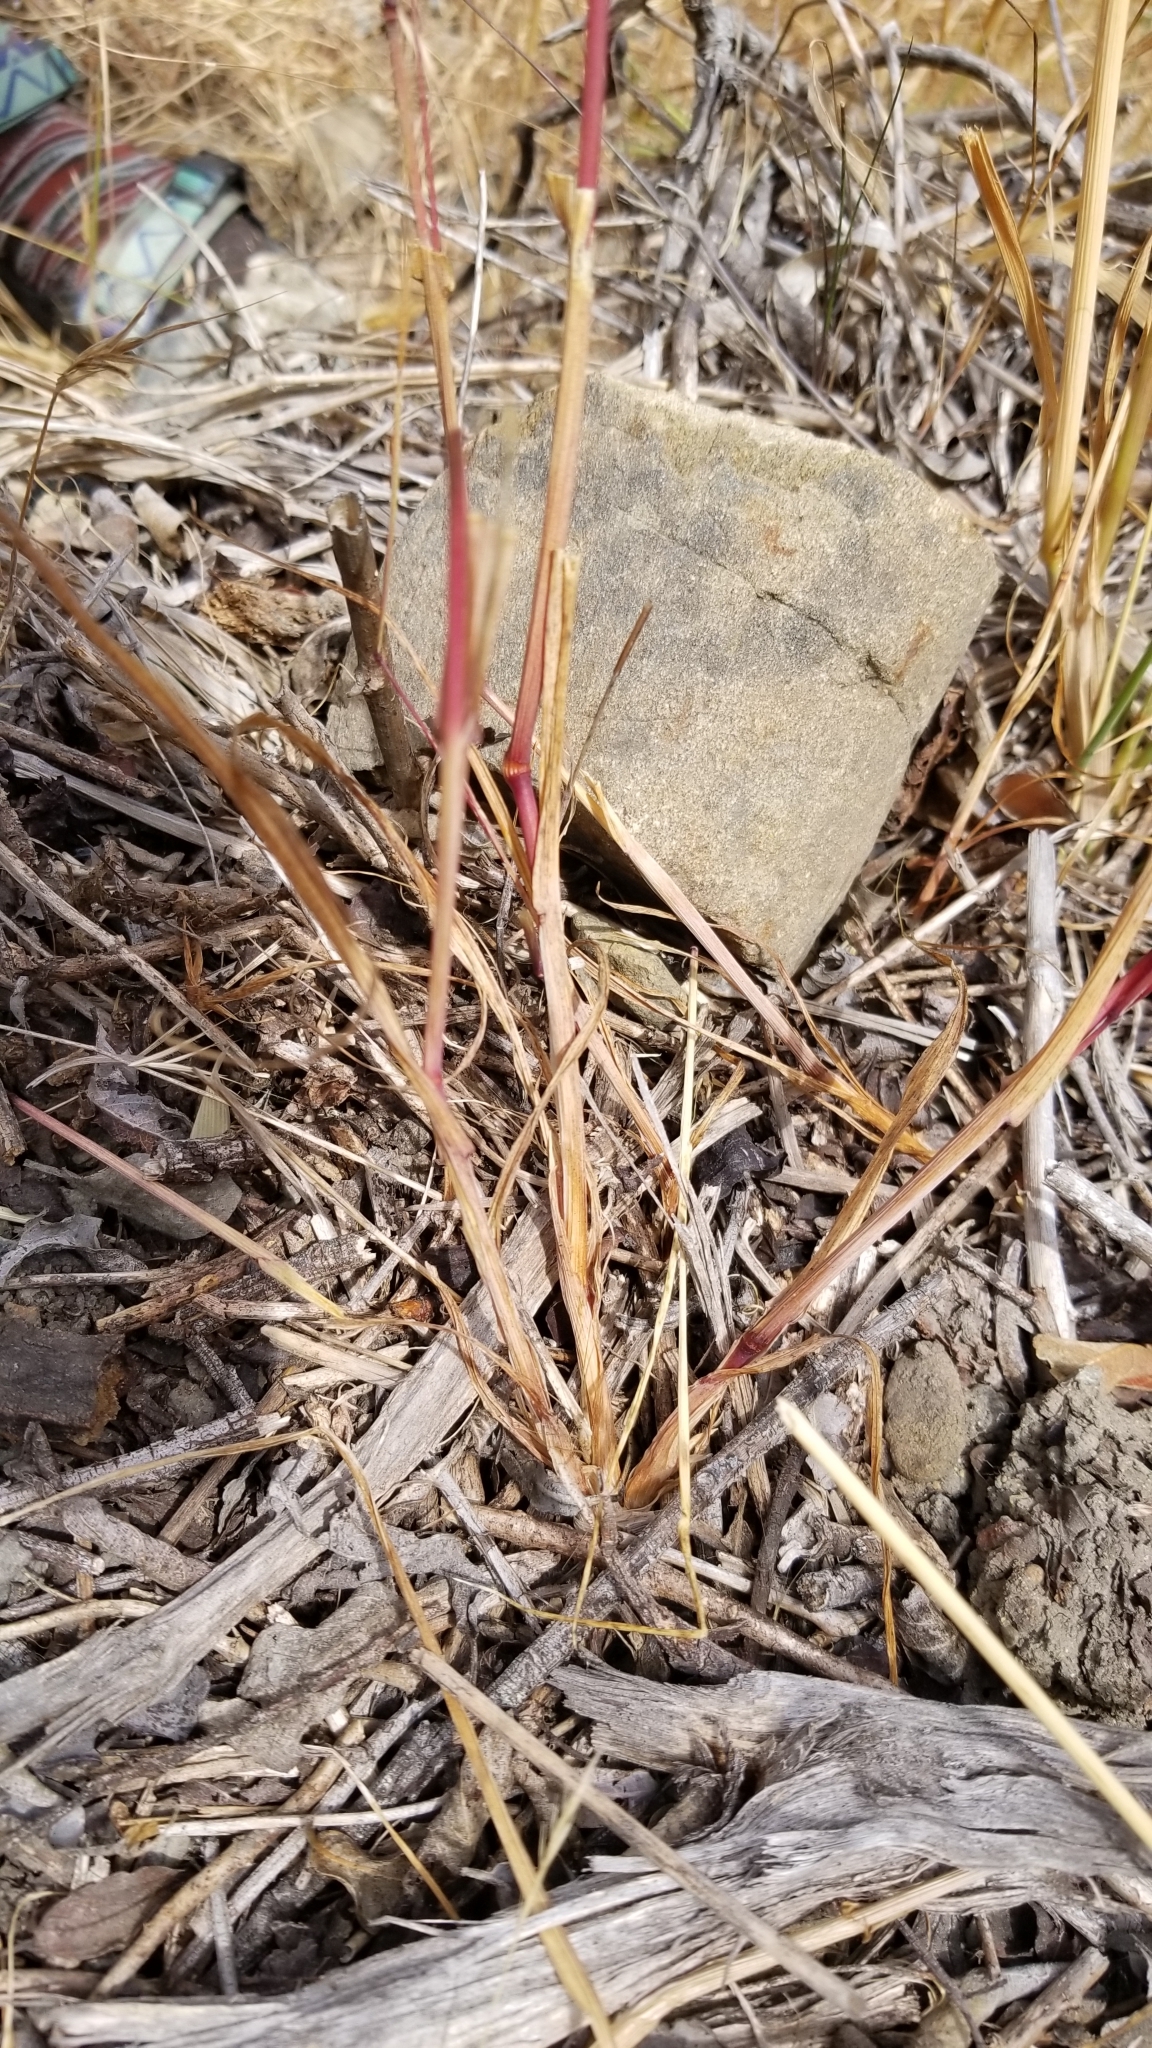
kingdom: Plantae
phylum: Tracheophyta
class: Liliopsida
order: Poales
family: Poaceae
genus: Briza
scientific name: Briza maxima
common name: Big quakinggrass
